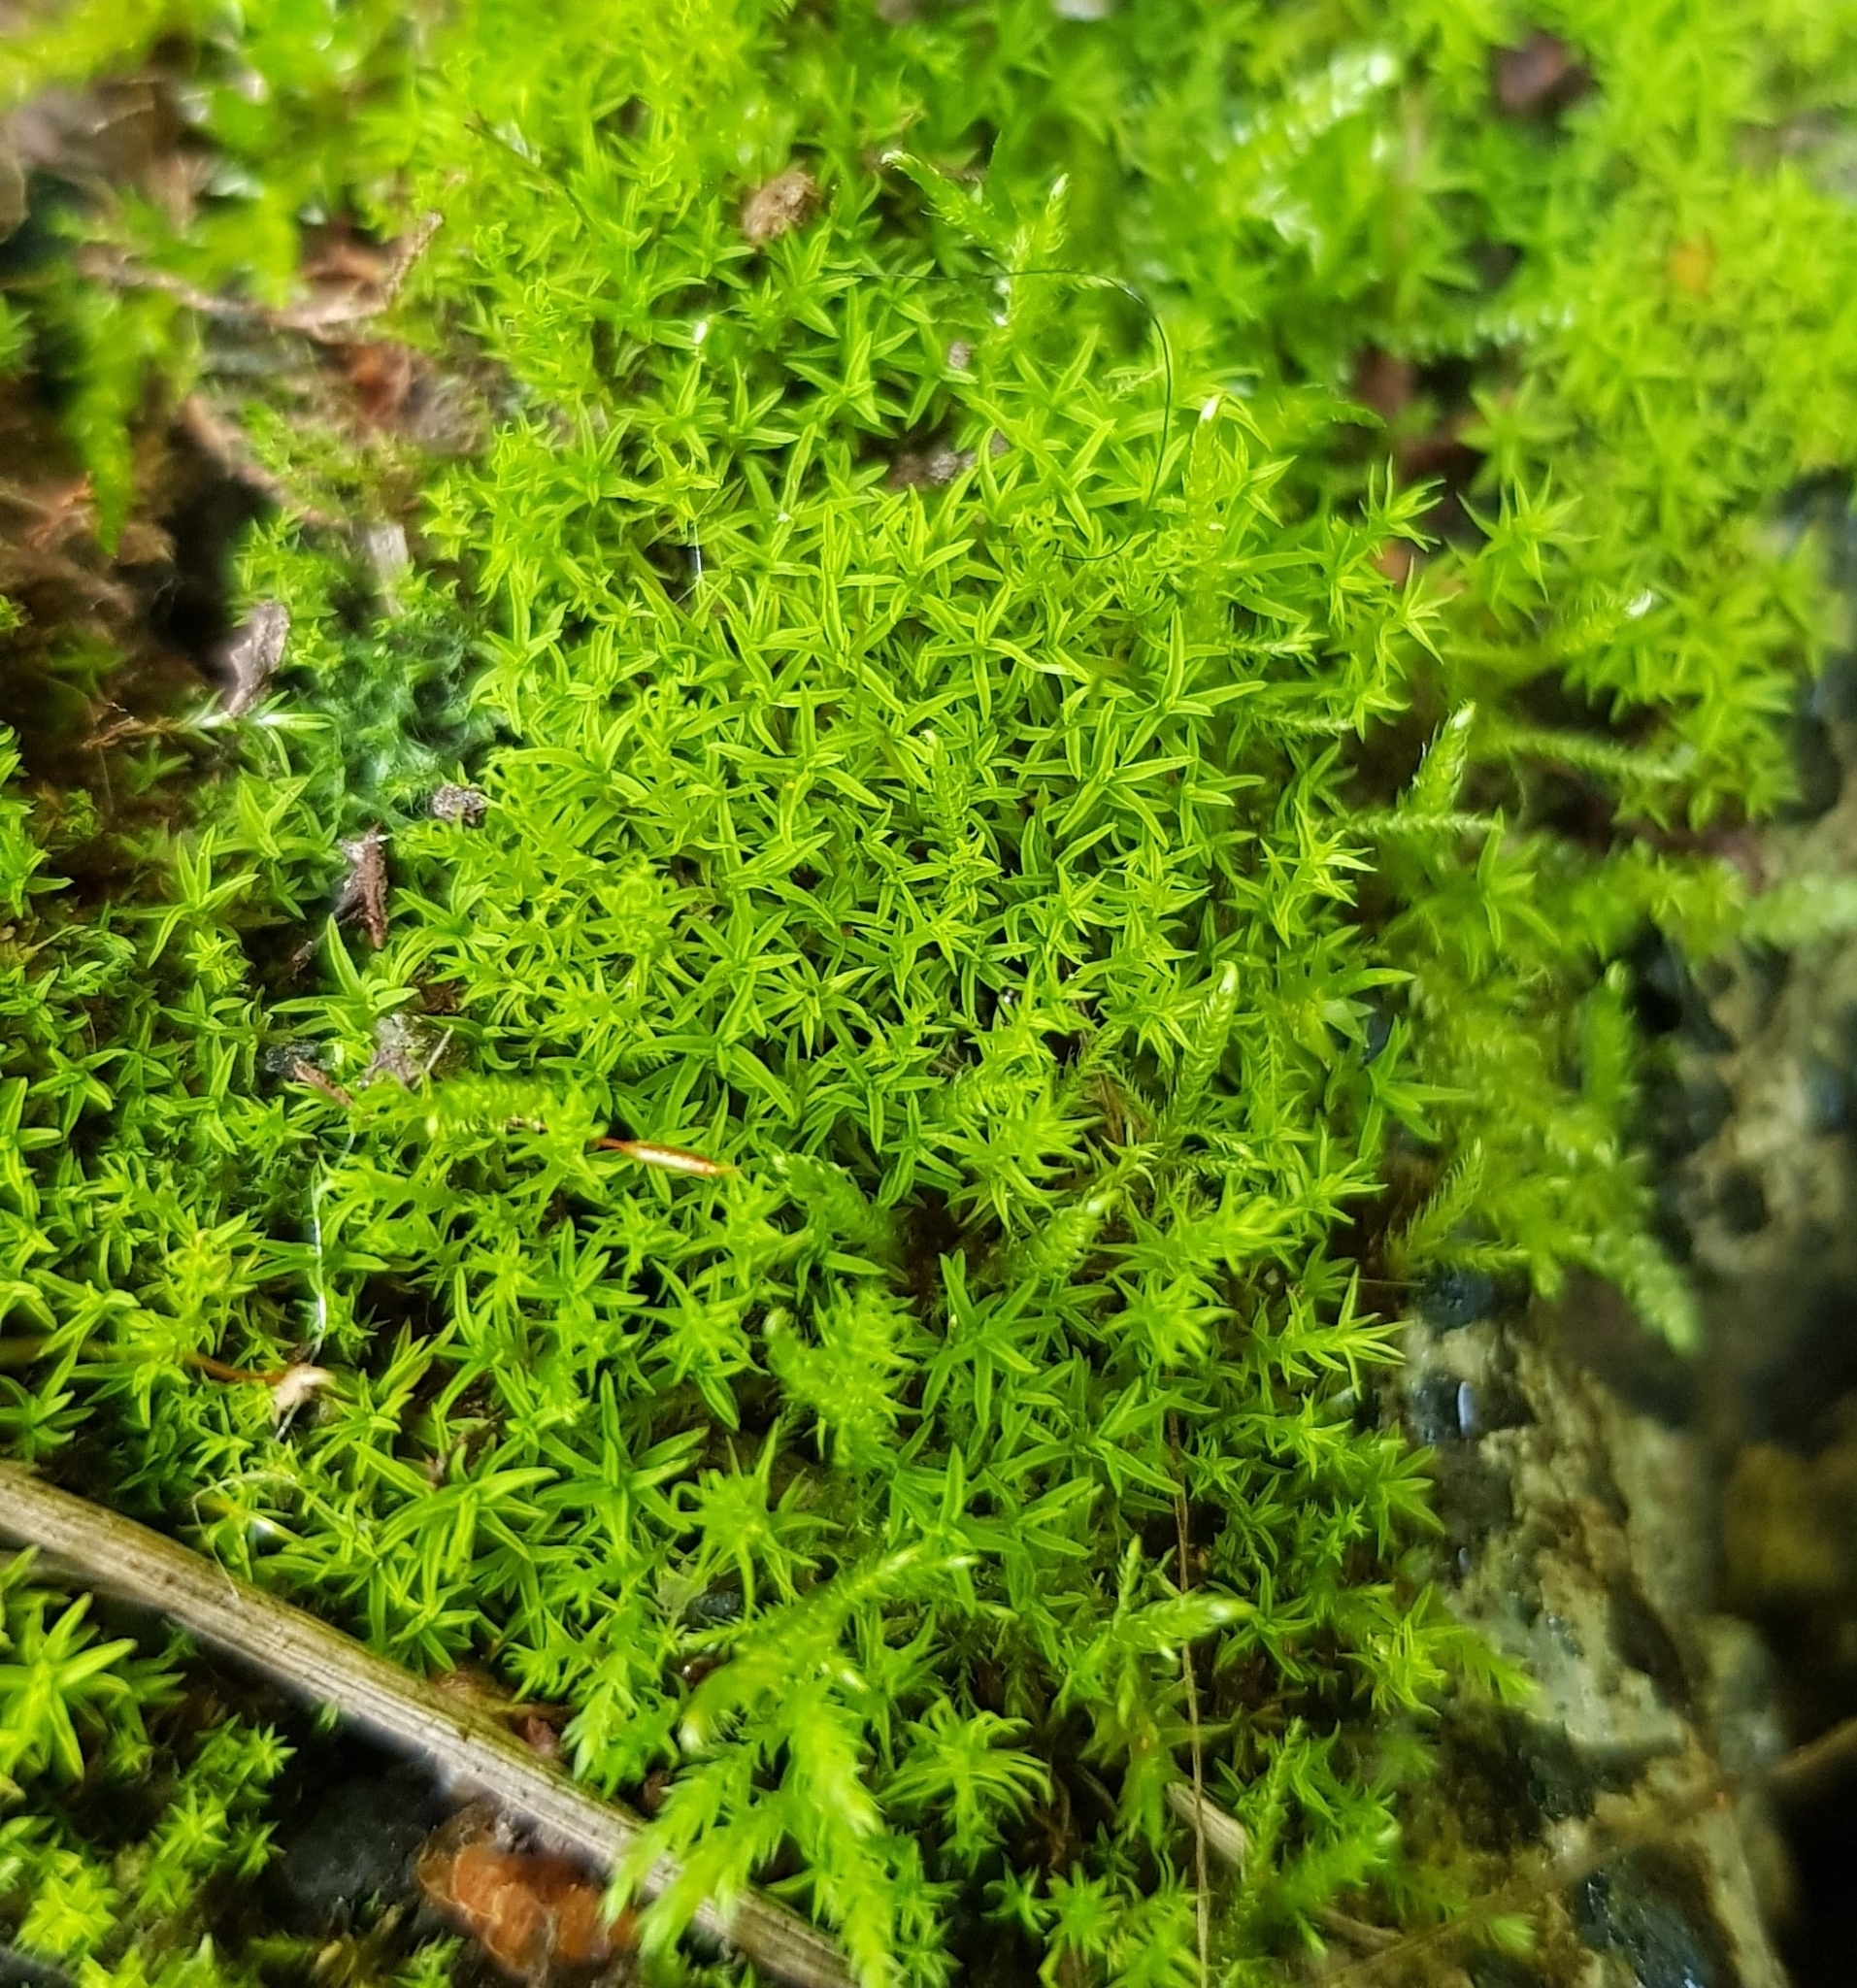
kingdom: Plantae
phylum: Bryophyta
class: Bryopsida
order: Pottiales
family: Pottiaceae
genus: Bryoerythrophyllum
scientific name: Bryoerythrophyllum recurvirostrum
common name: Red beard moss
